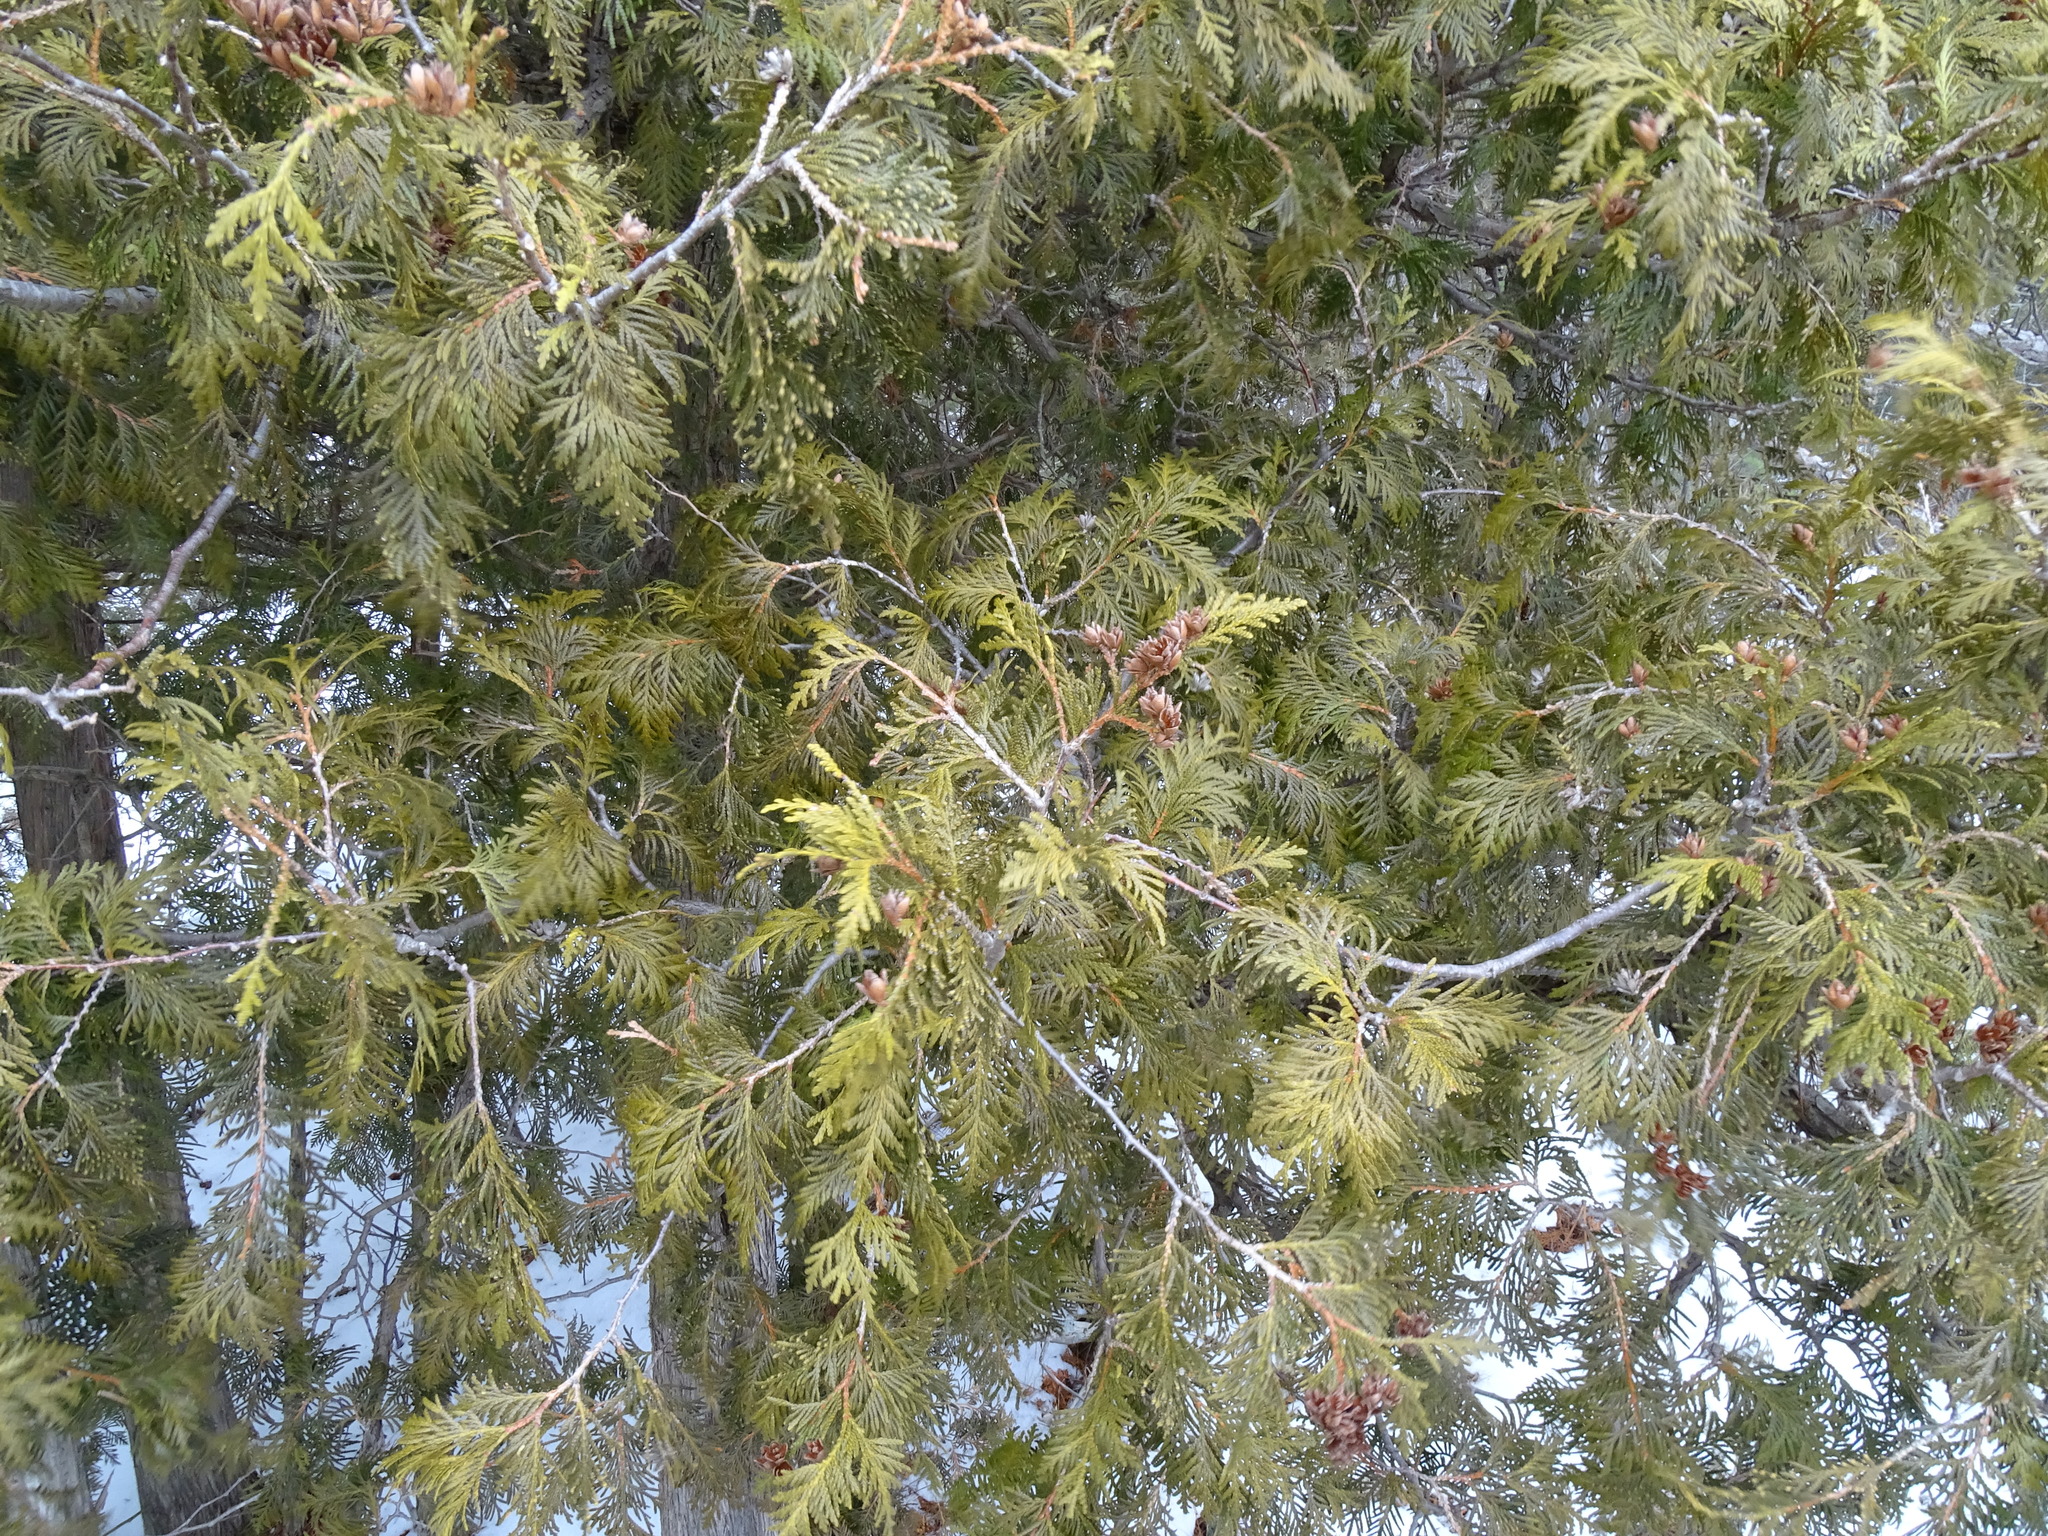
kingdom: Plantae
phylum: Tracheophyta
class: Pinopsida
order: Pinales
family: Cupressaceae
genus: Thuja
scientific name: Thuja occidentalis
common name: Northern white-cedar
